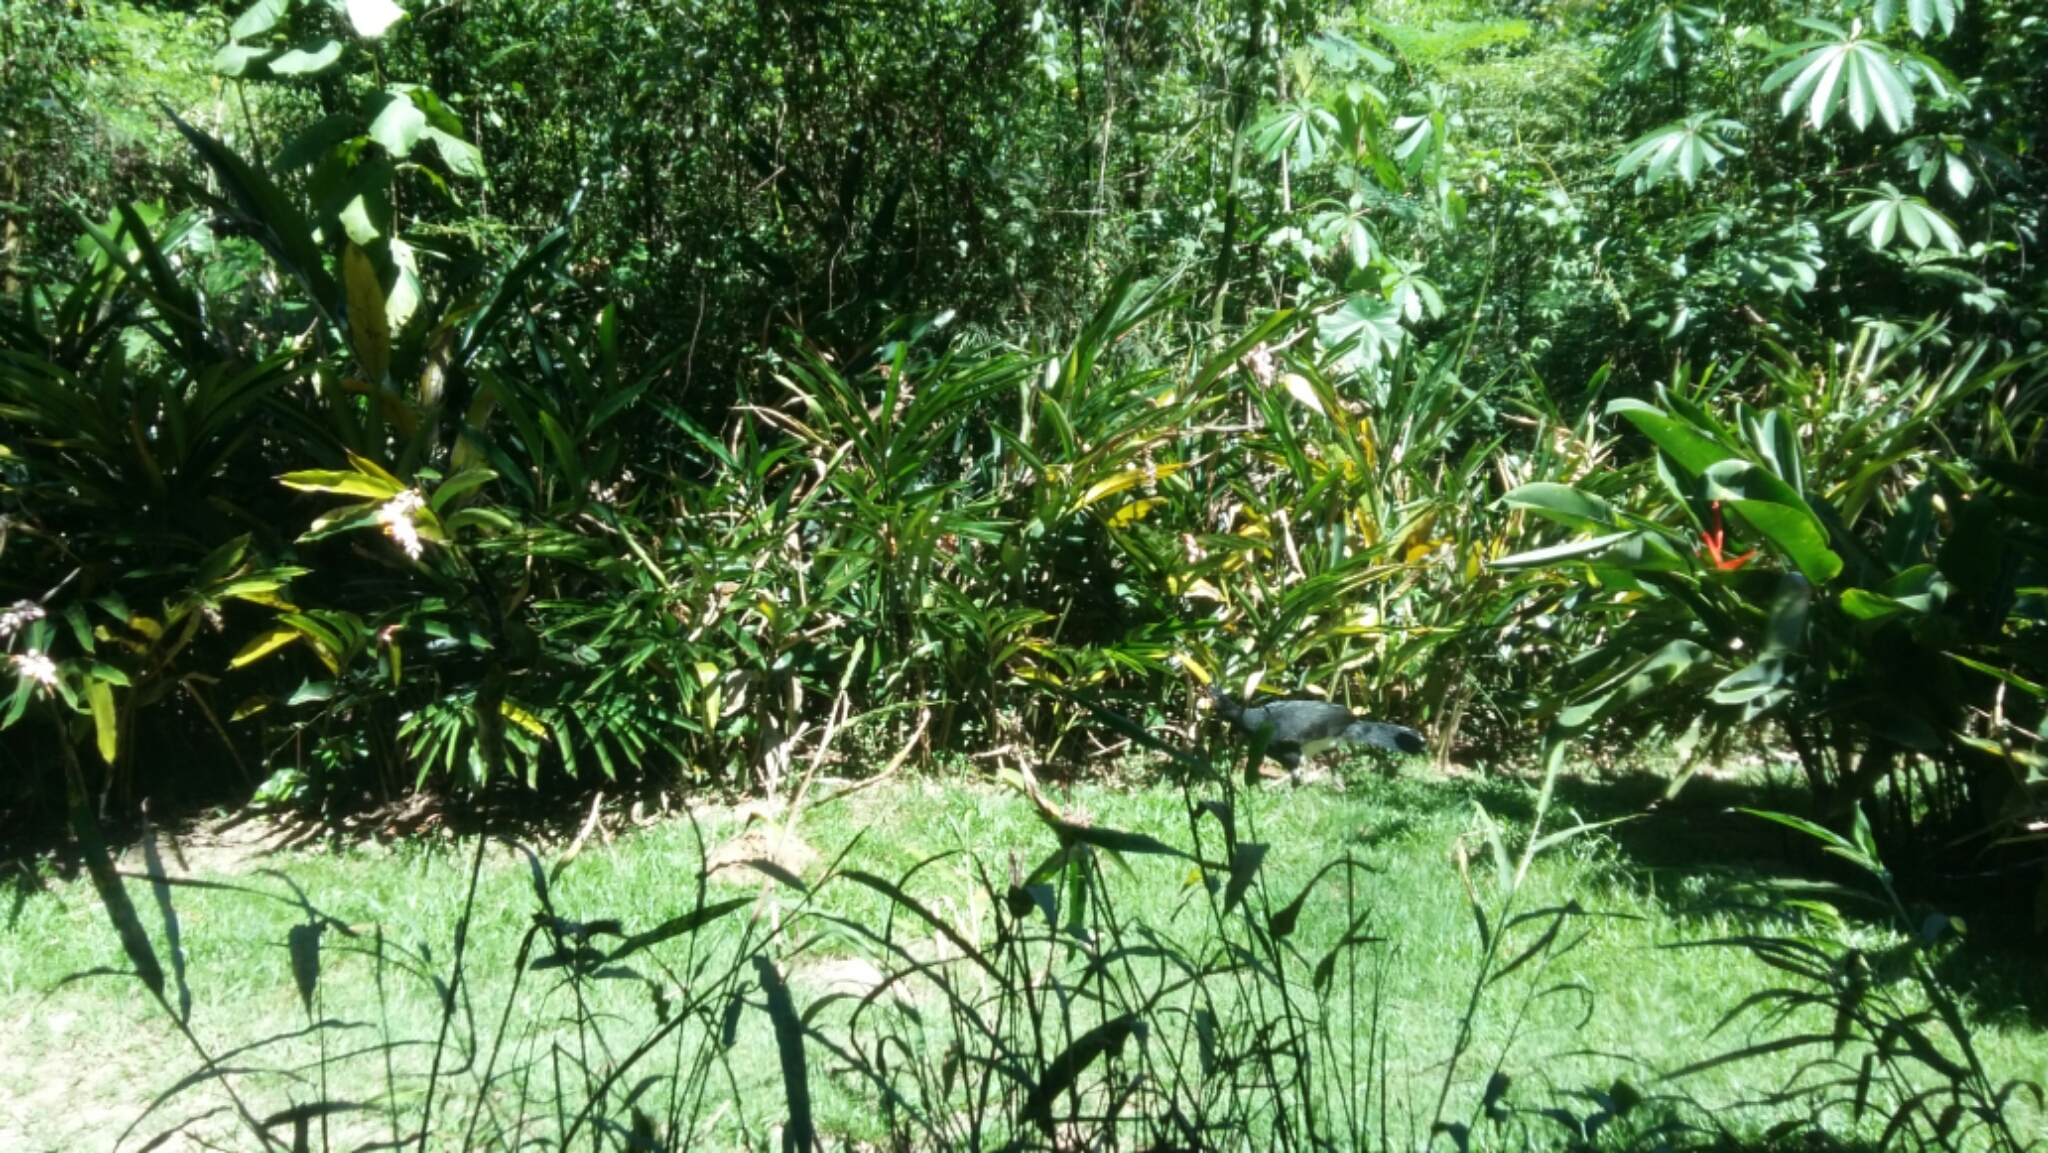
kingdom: Animalia
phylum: Chordata
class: Aves
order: Galliformes
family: Cracidae
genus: Crax
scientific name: Crax fasciolata
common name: Bare-faced curassow
